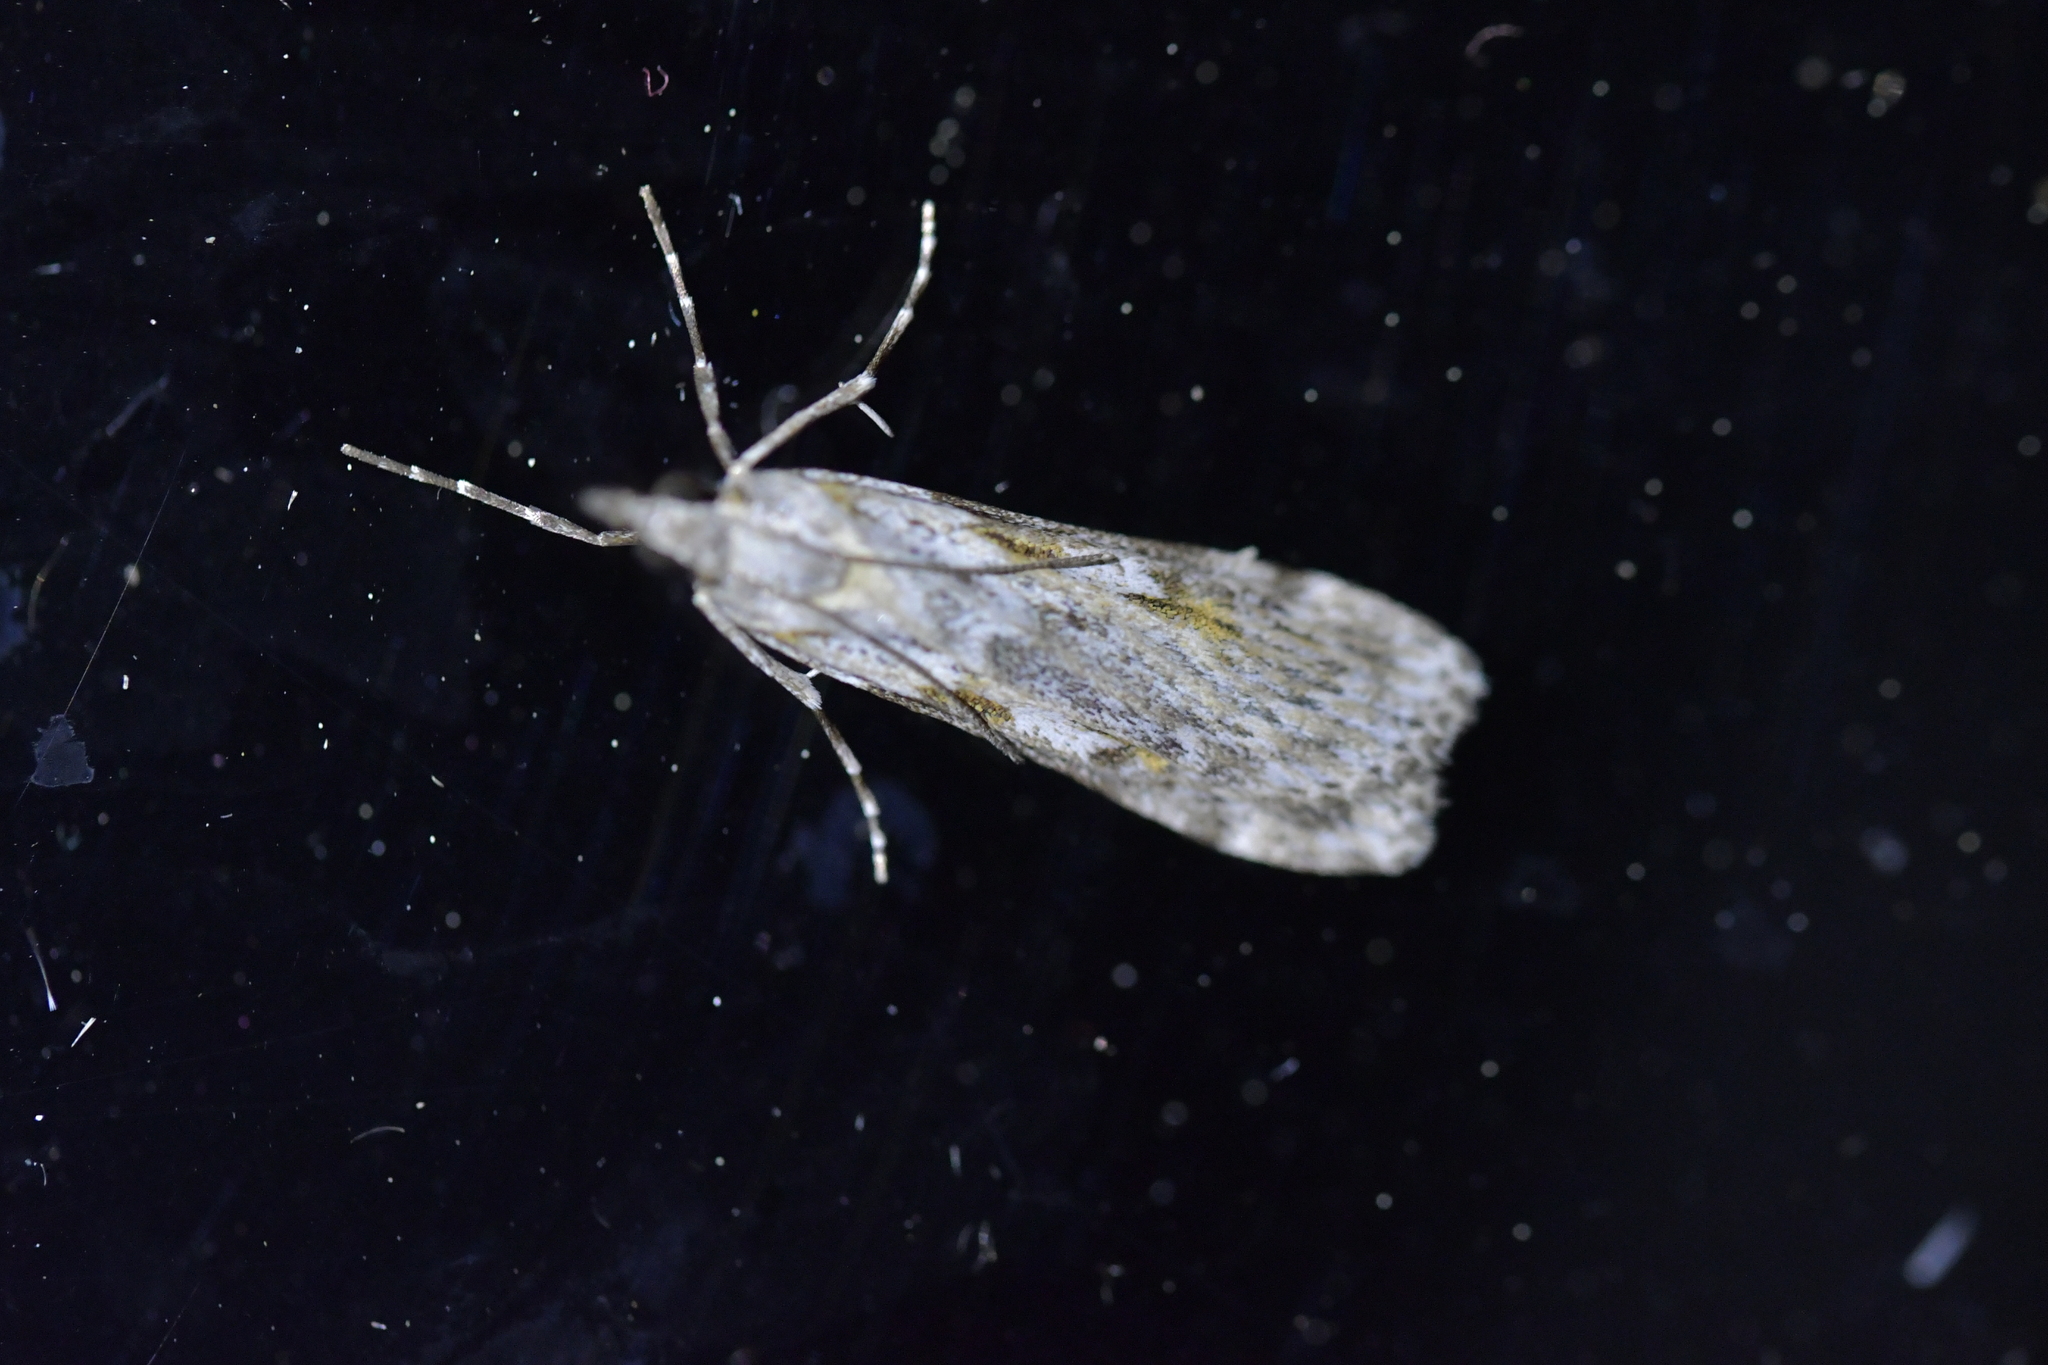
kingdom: Animalia
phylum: Arthropoda
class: Insecta
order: Lepidoptera
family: Crambidae
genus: Scoparia
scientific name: Scoparia halopis
